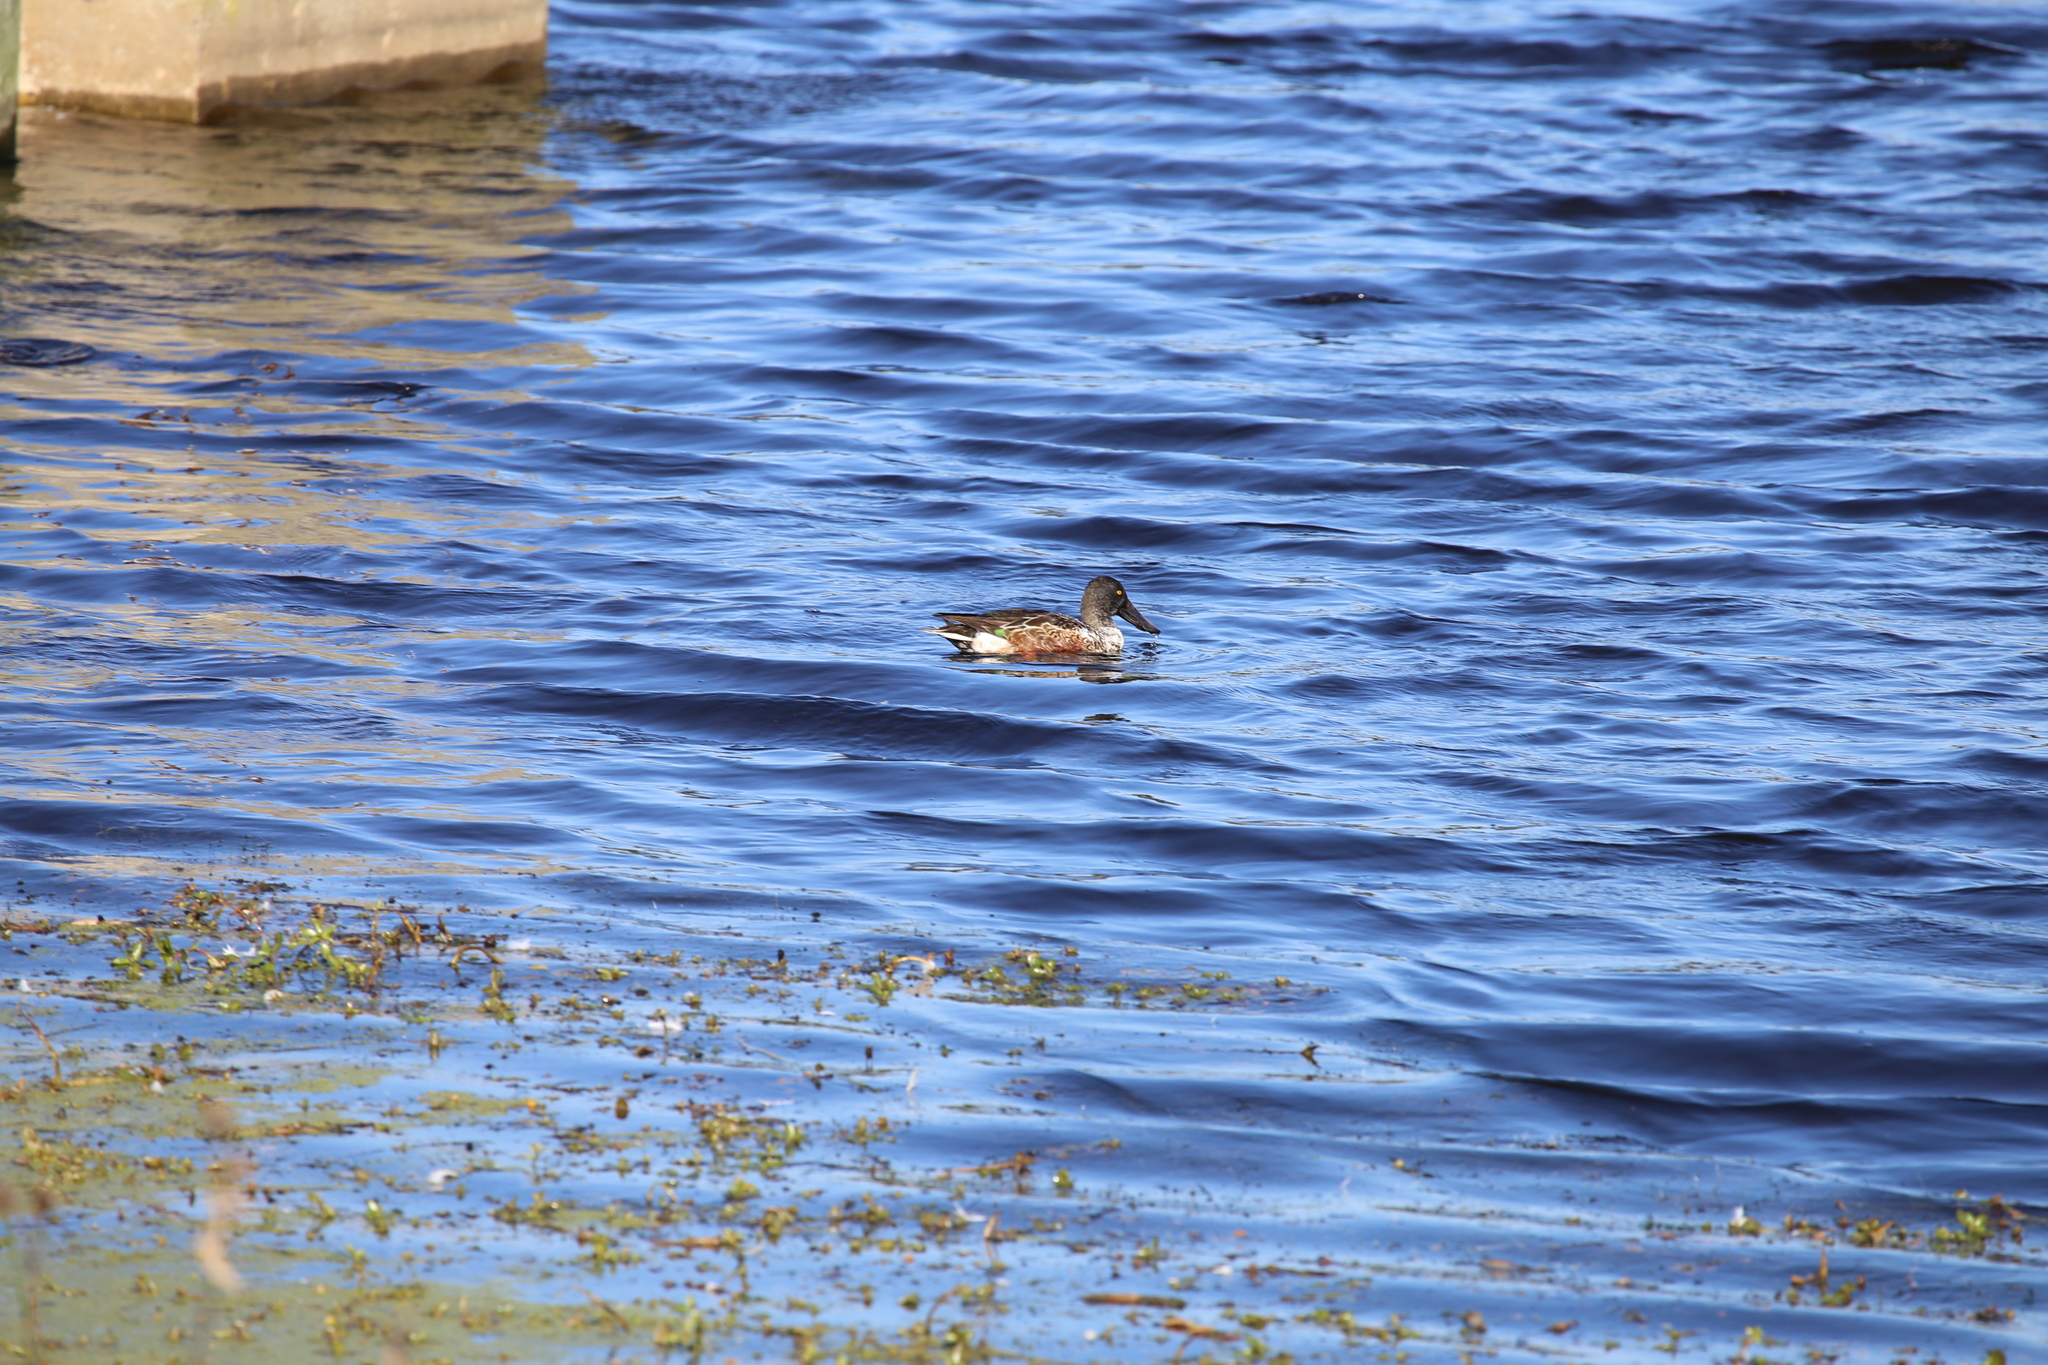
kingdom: Animalia
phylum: Chordata
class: Aves
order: Anseriformes
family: Anatidae
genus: Spatula
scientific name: Spatula clypeata
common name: Northern shoveler
